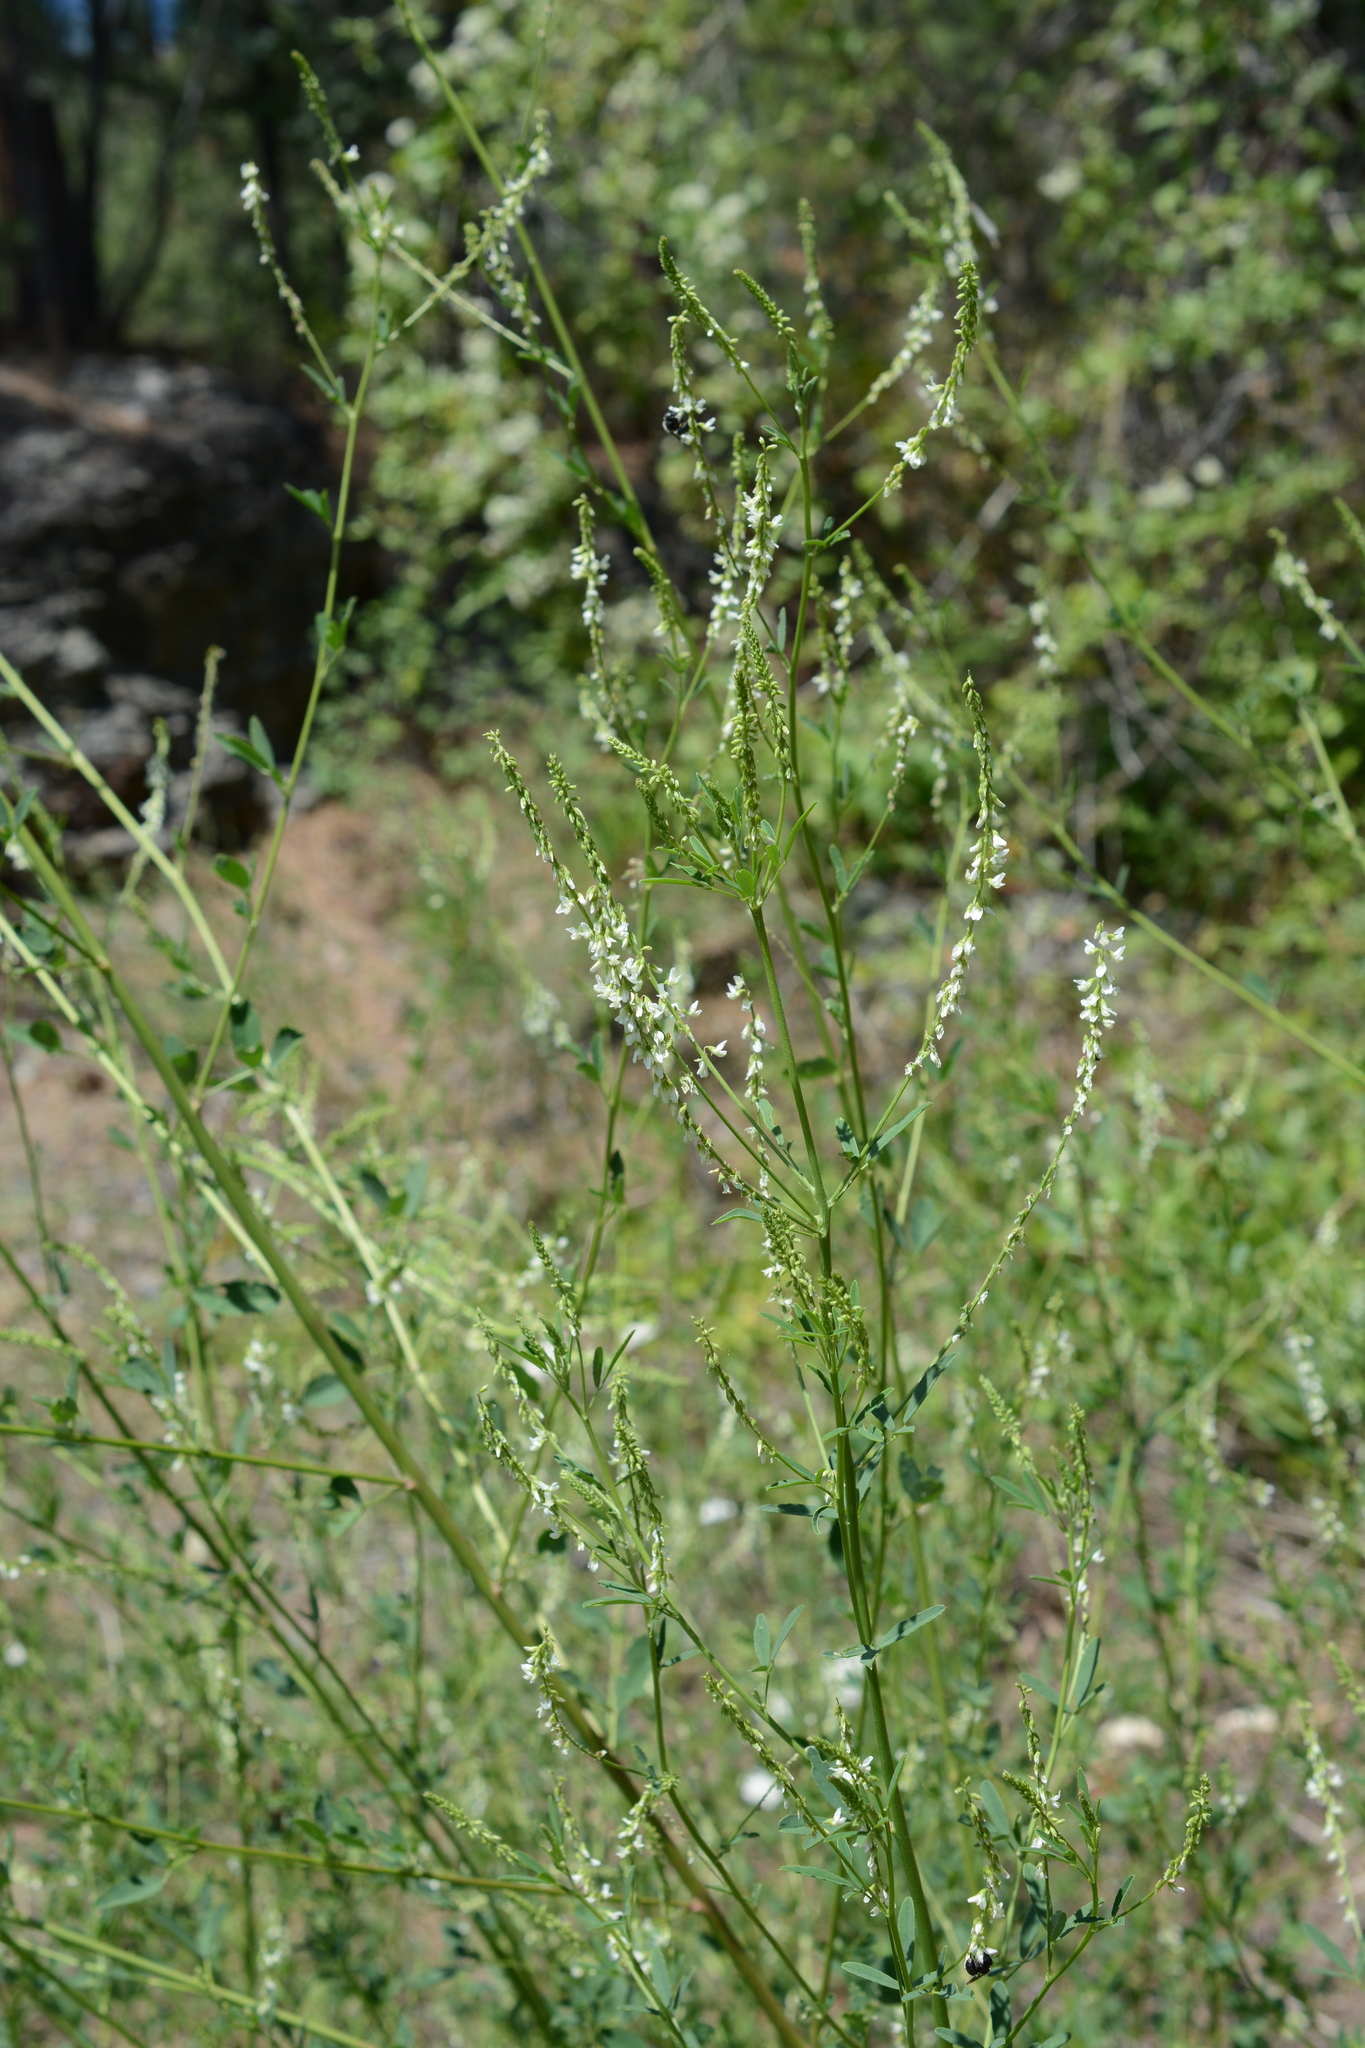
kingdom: Plantae
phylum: Tracheophyta
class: Magnoliopsida
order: Fabales
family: Fabaceae
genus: Melilotus
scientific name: Melilotus albus
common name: White melilot
